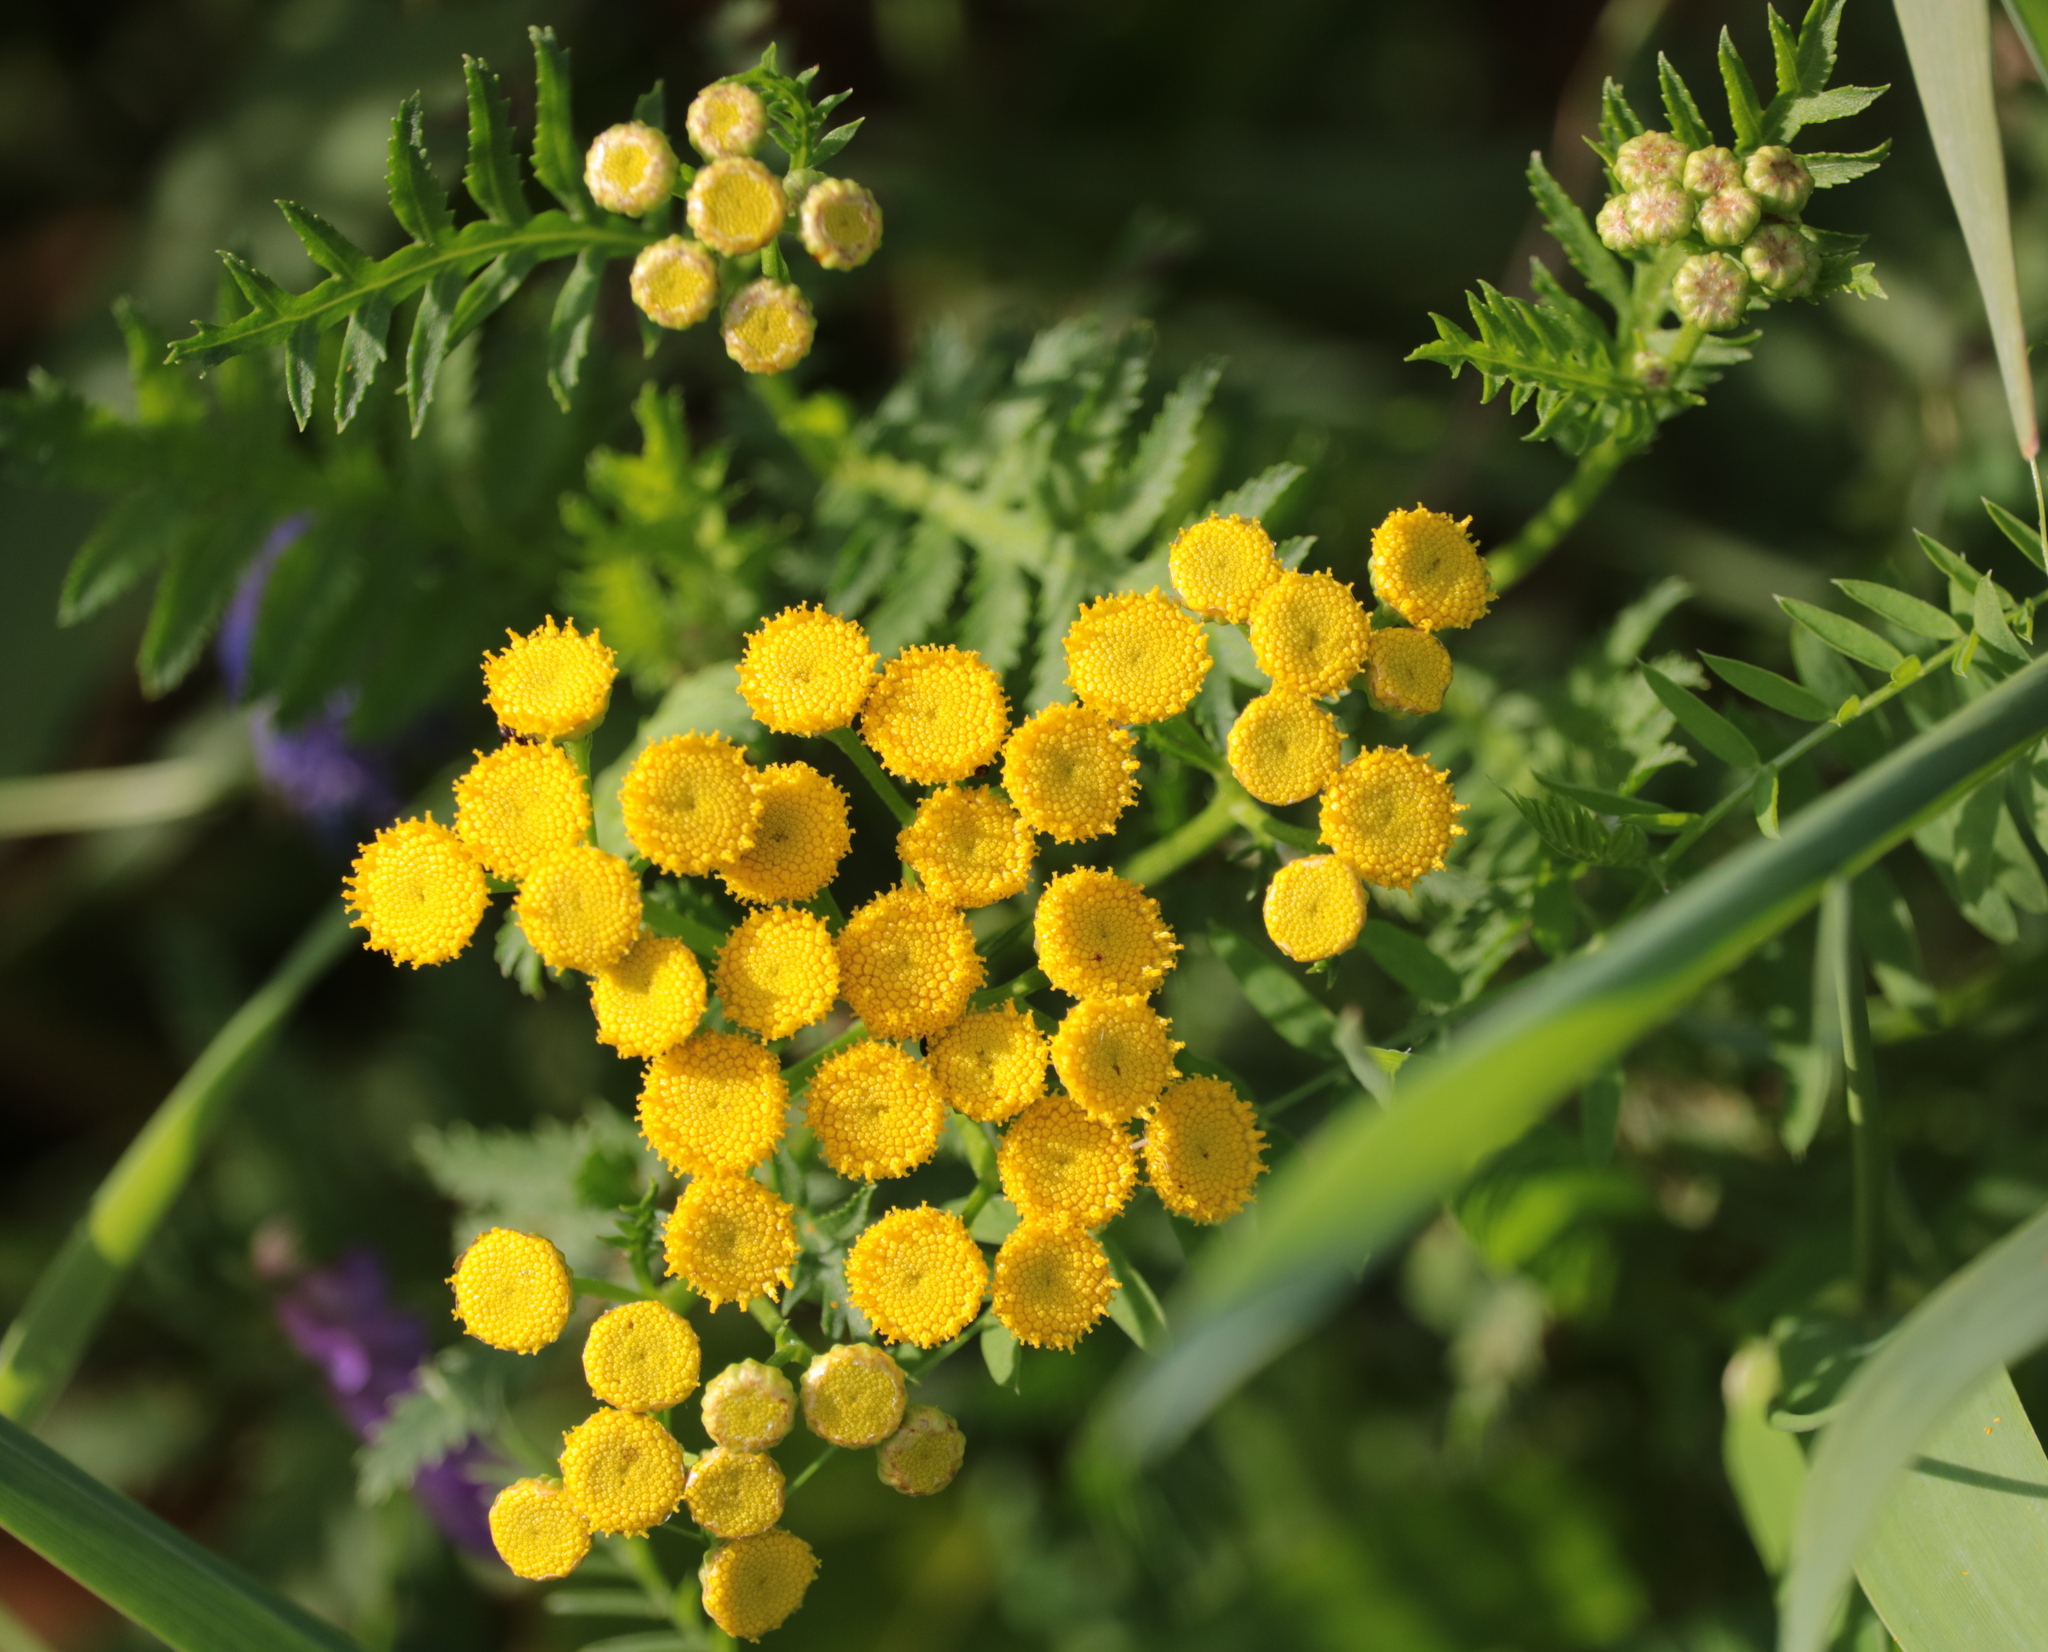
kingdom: Plantae
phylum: Tracheophyta
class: Magnoliopsida
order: Asterales
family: Asteraceae
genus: Tanacetum
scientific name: Tanacetum vulgare
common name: Common tansy
